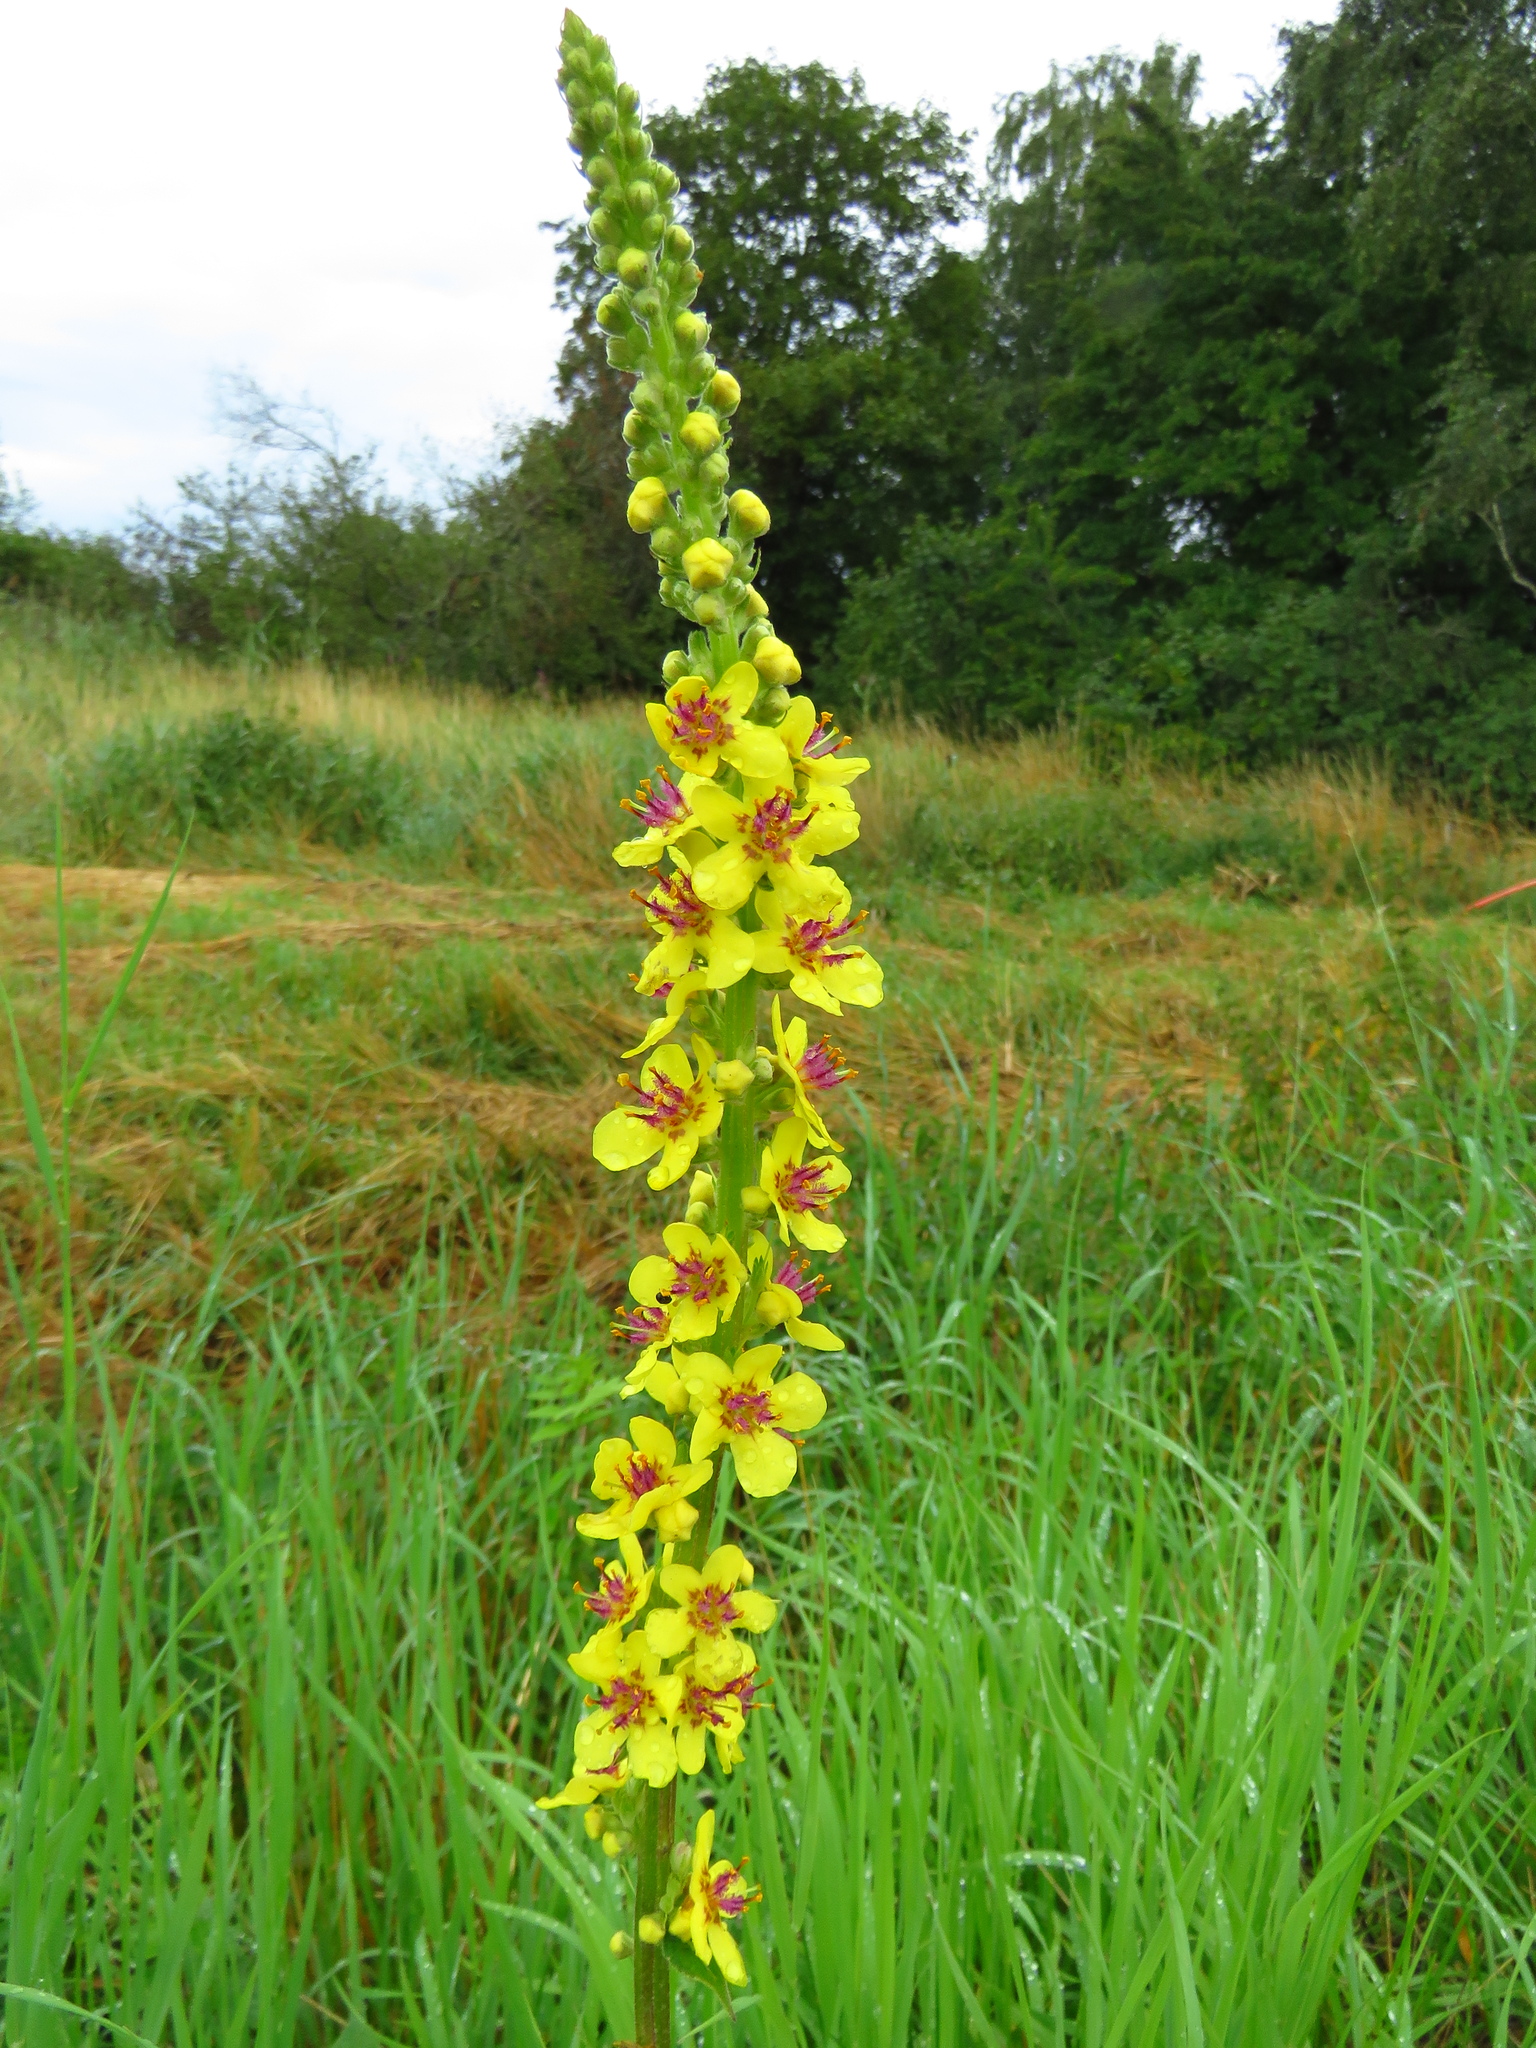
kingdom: Plantae
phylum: Tracheophyta
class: Magnoliopsida
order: Lamiales
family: Scrophulariaceae
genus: Verbascum
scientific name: Verbascum nigrum
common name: Dark mullein
